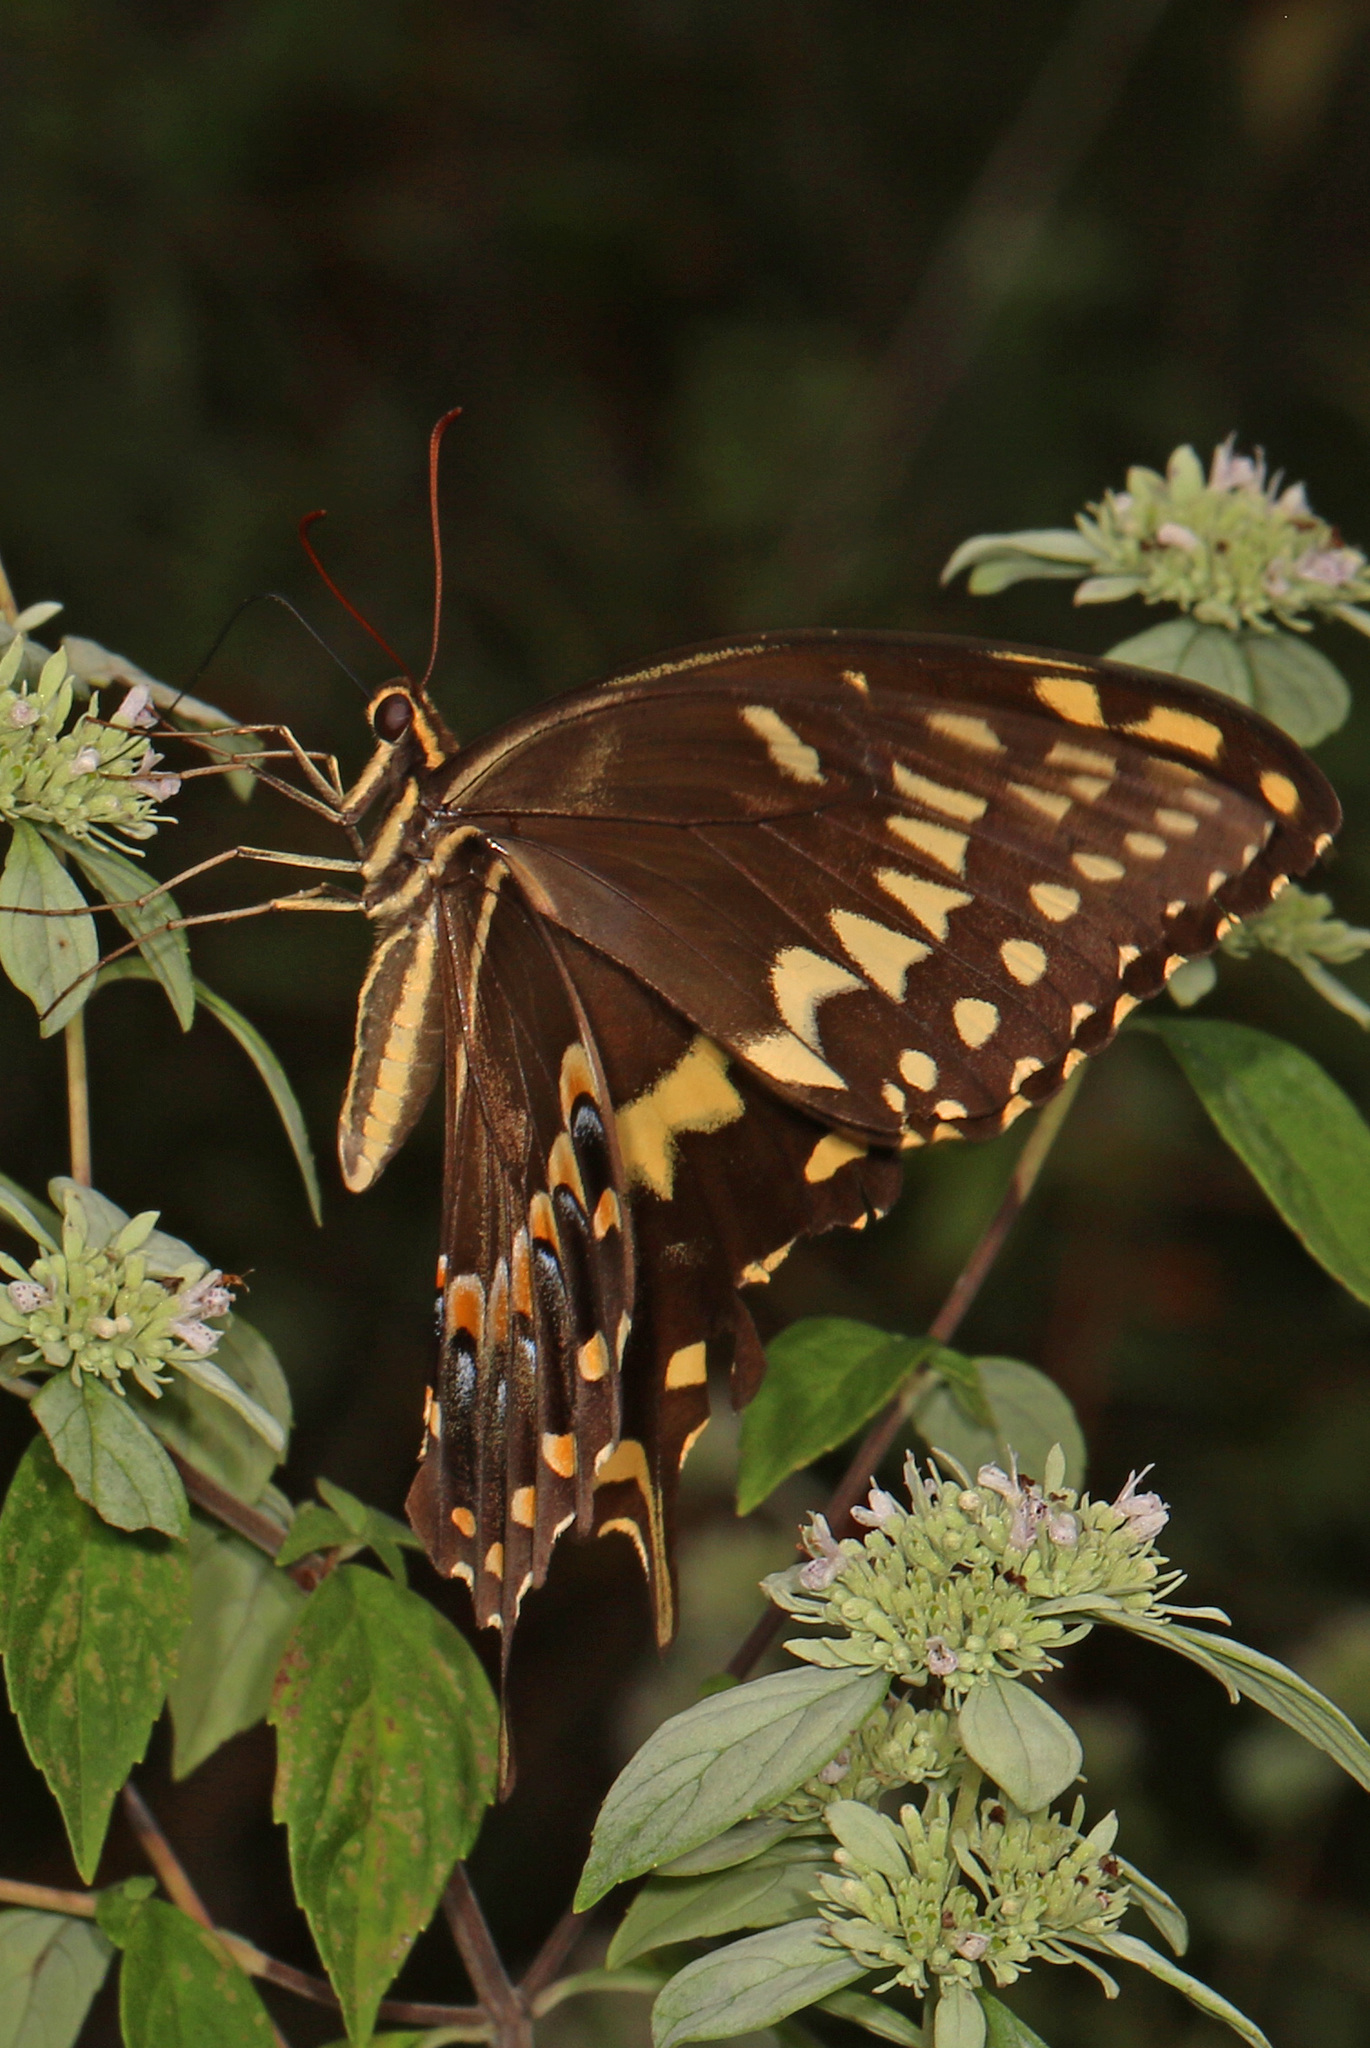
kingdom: Animalia
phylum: Arthropoda
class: Insecta
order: Lepidoptera
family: Papilionidae
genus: Papilio
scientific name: Papilio palamedes
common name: Palamedes swallowtail
